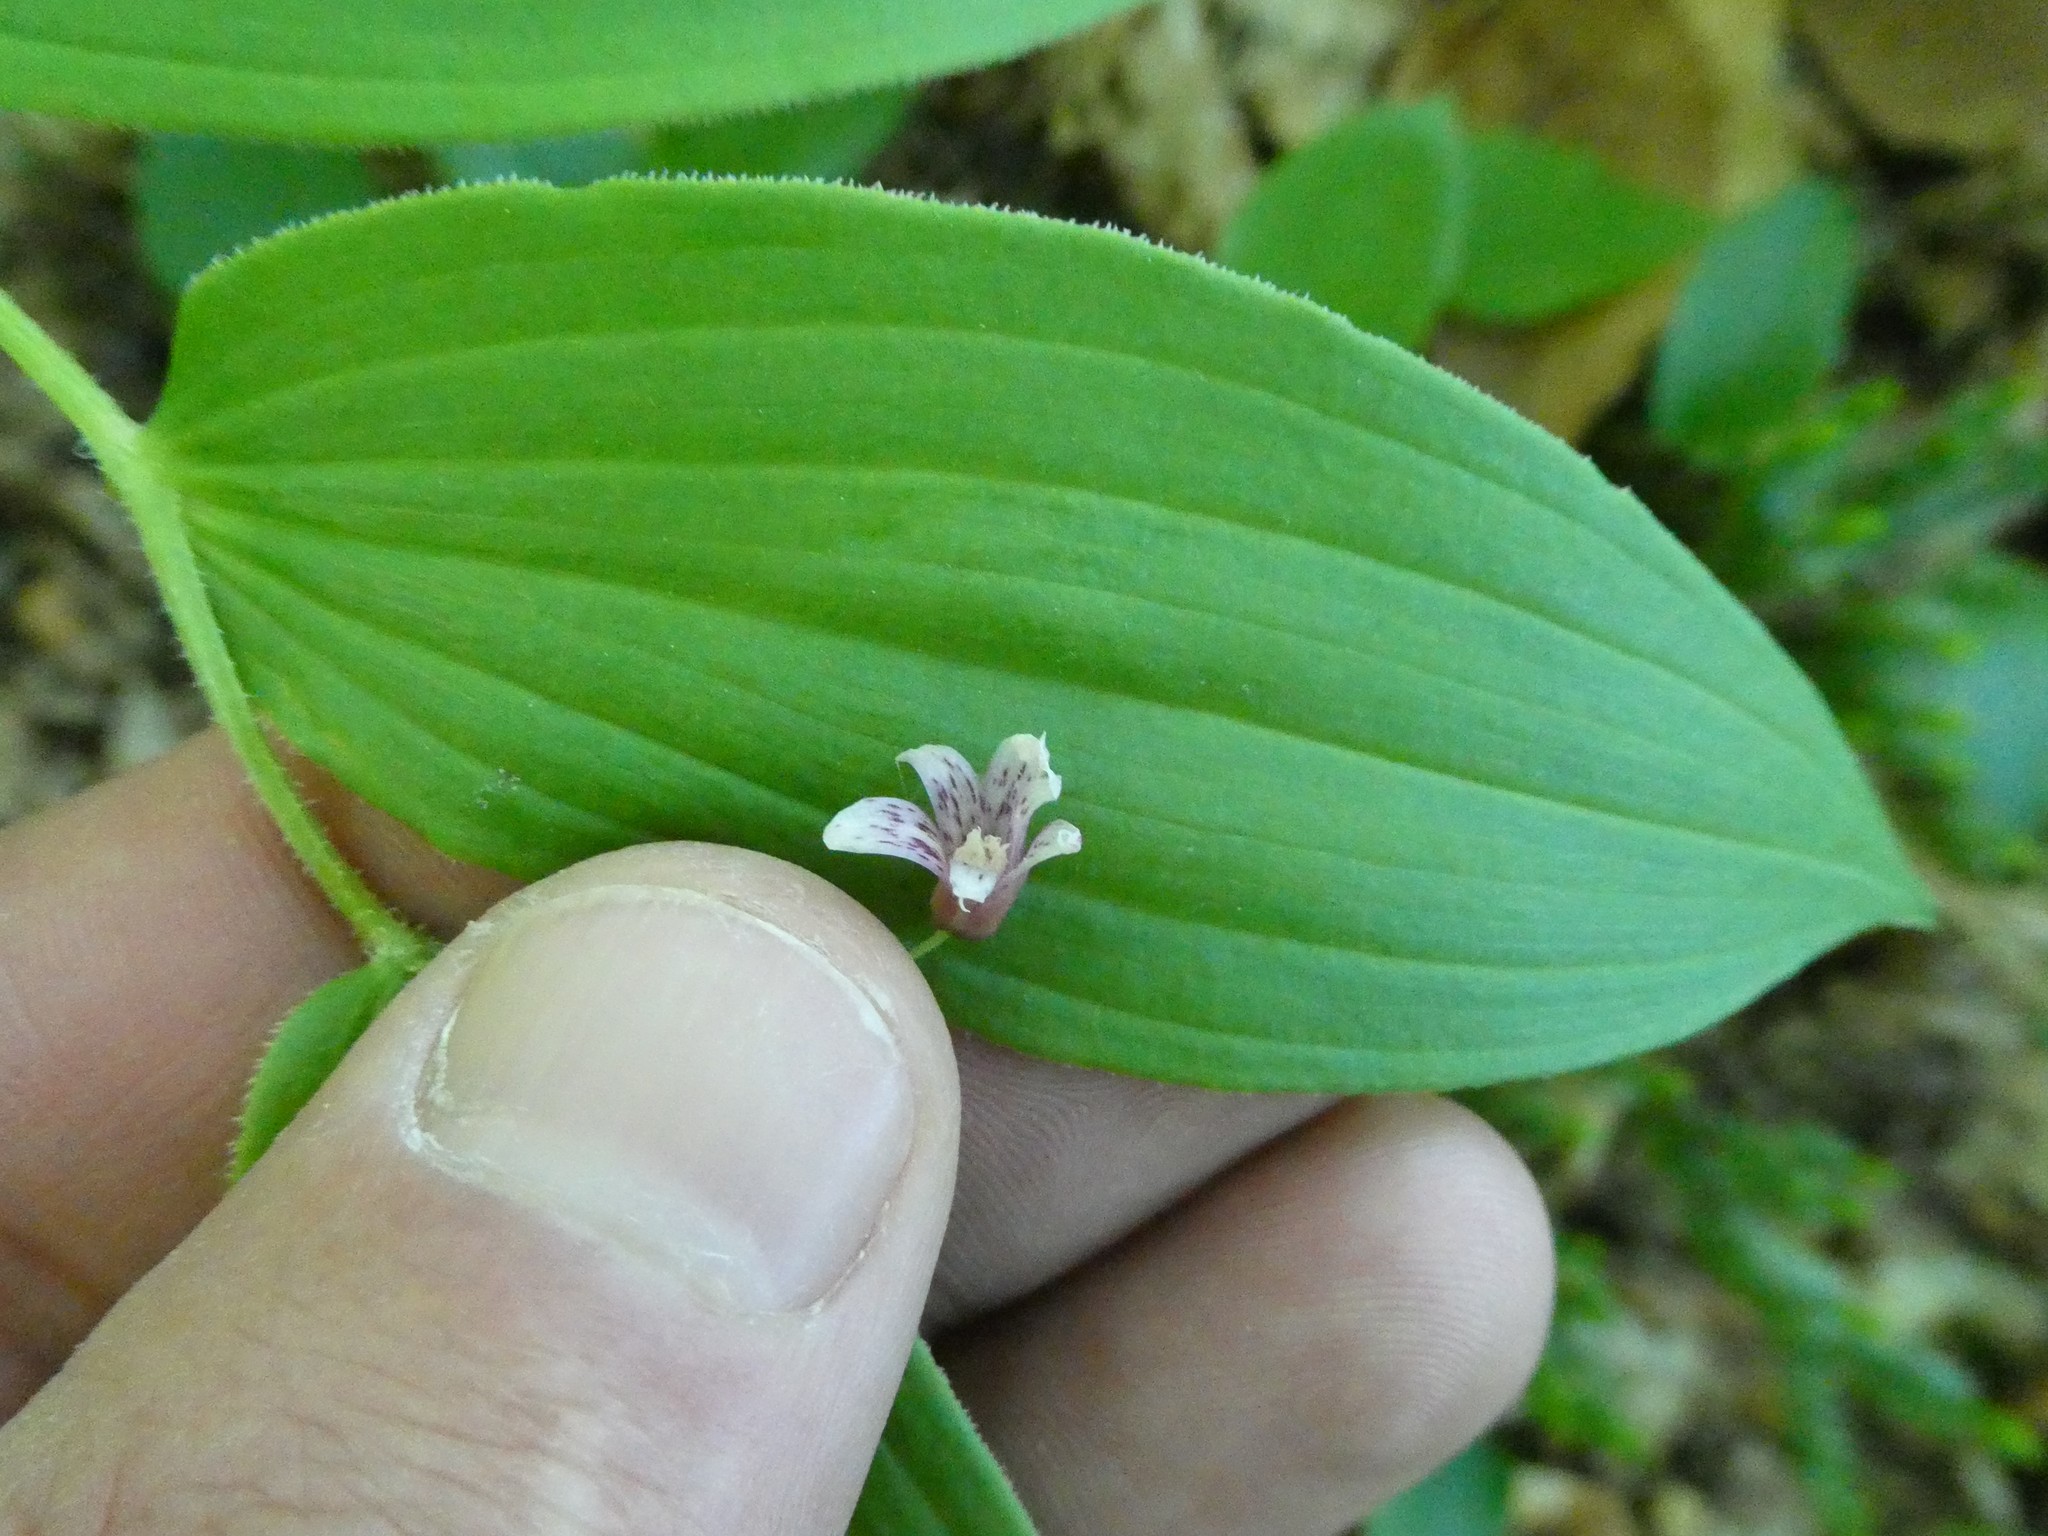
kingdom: Plantae
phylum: Tracheophyta
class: Liliopsida
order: Liliales
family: Liliaceae
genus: Streptopus
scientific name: Streptopus lanceolatus
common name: Rose mandarin
